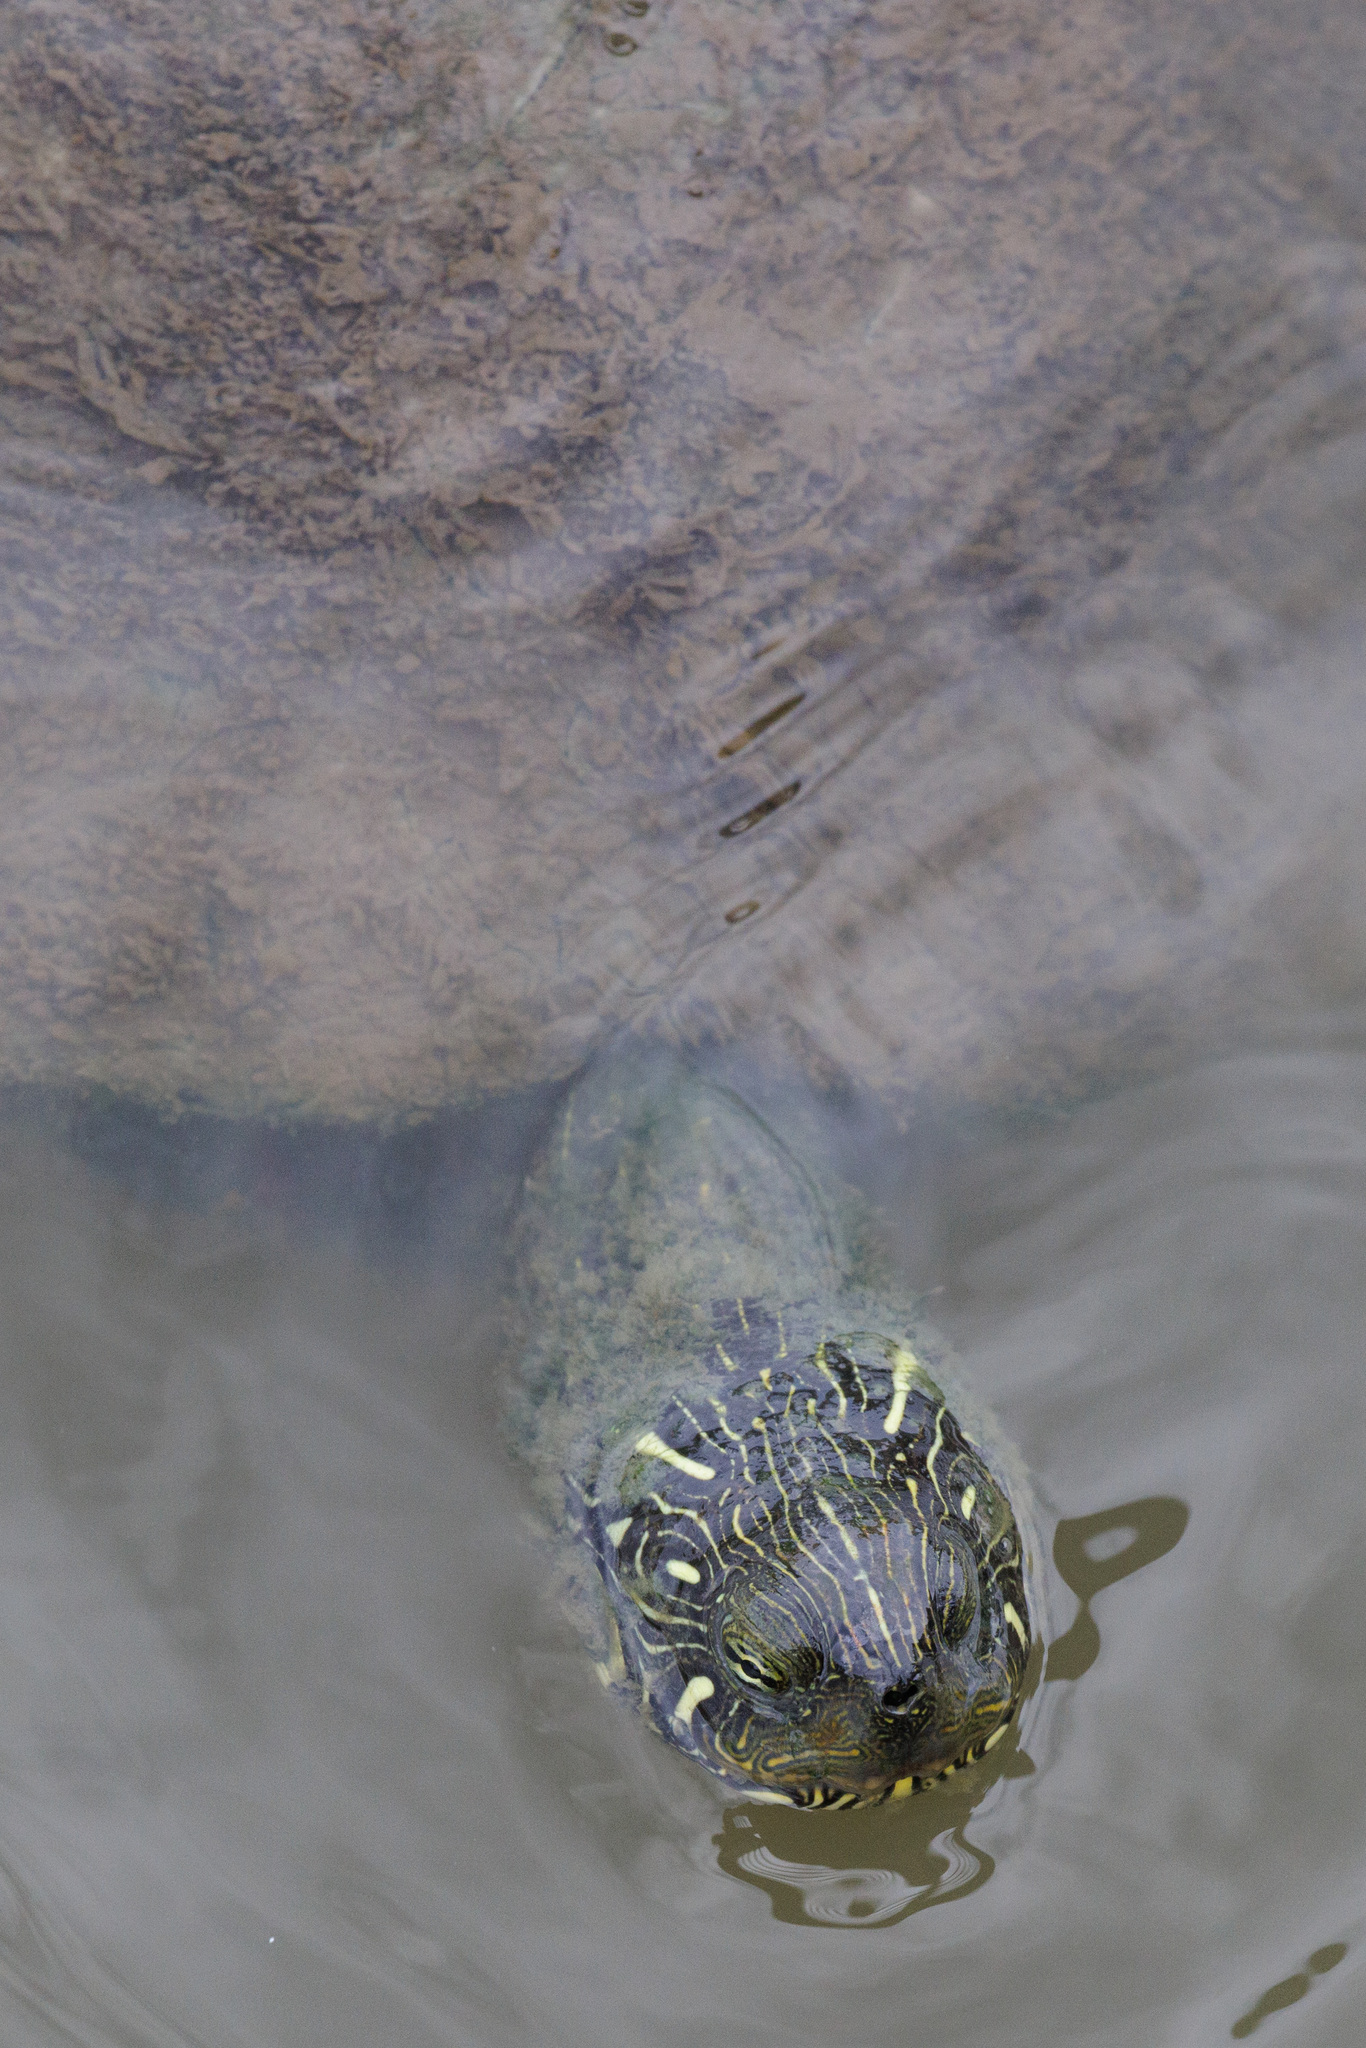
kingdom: Animalia
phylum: Chordata
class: Testudines
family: Emydidae
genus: Pseudemys
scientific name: Pseudemys texana
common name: Texas river cooter
